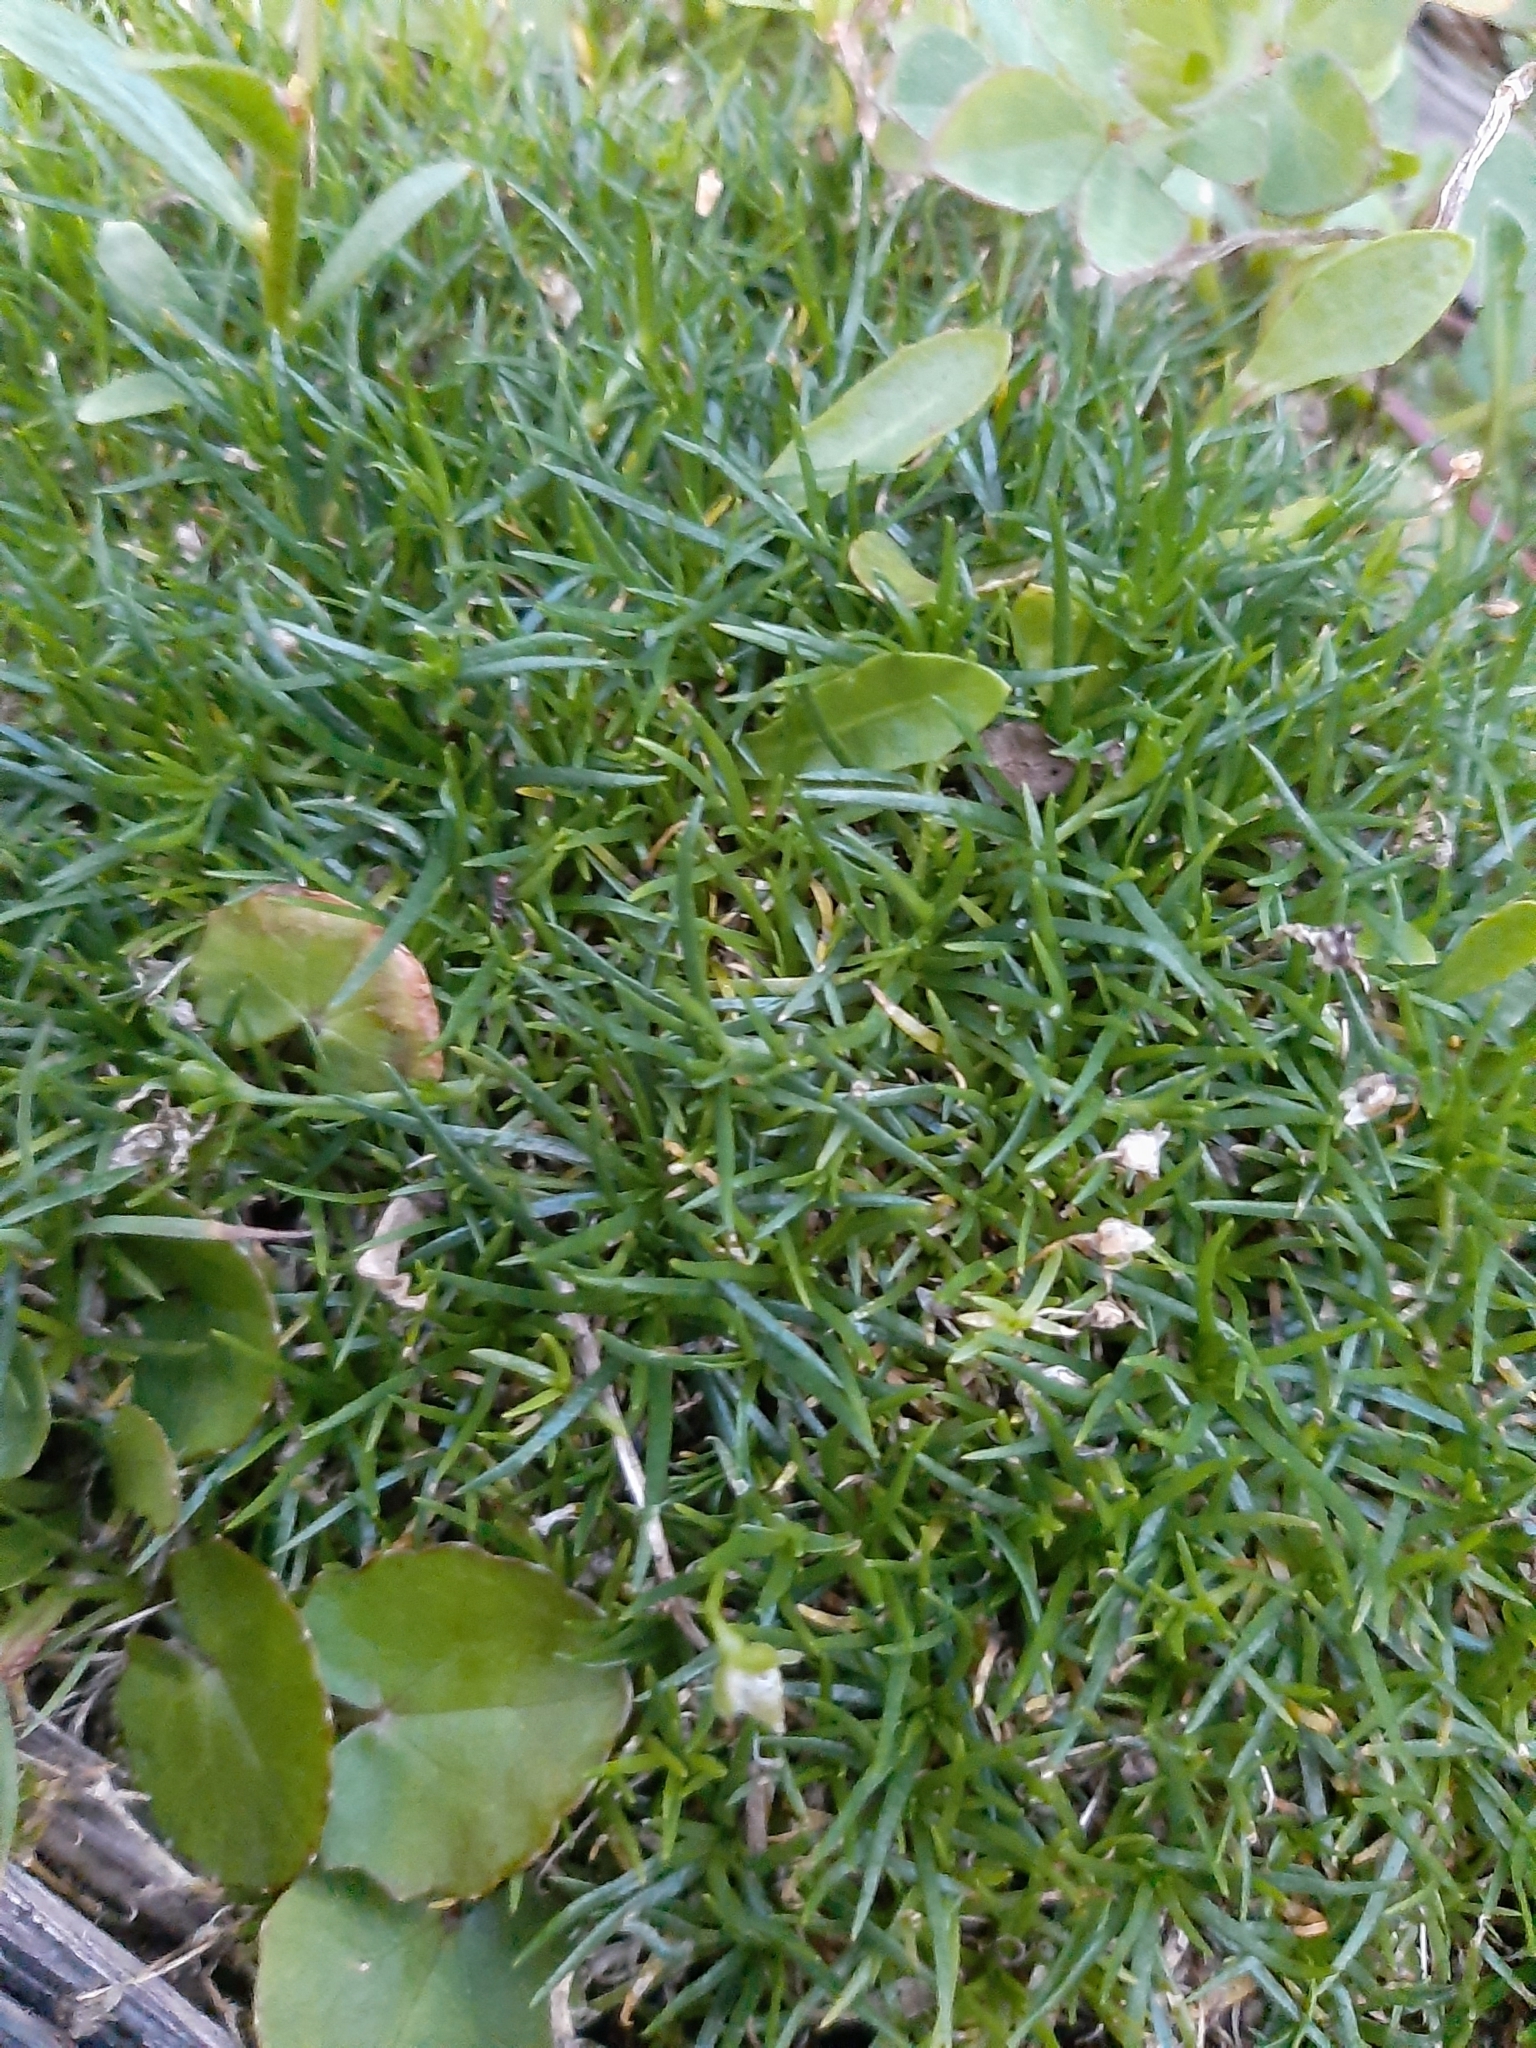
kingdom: Plantae
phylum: Tracheophyta
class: Magnoliopsida
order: Caryophyllales
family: Caryophyllaceae
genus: Sagina
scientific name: Sagina procumbens
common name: Procumbent pearlwort
